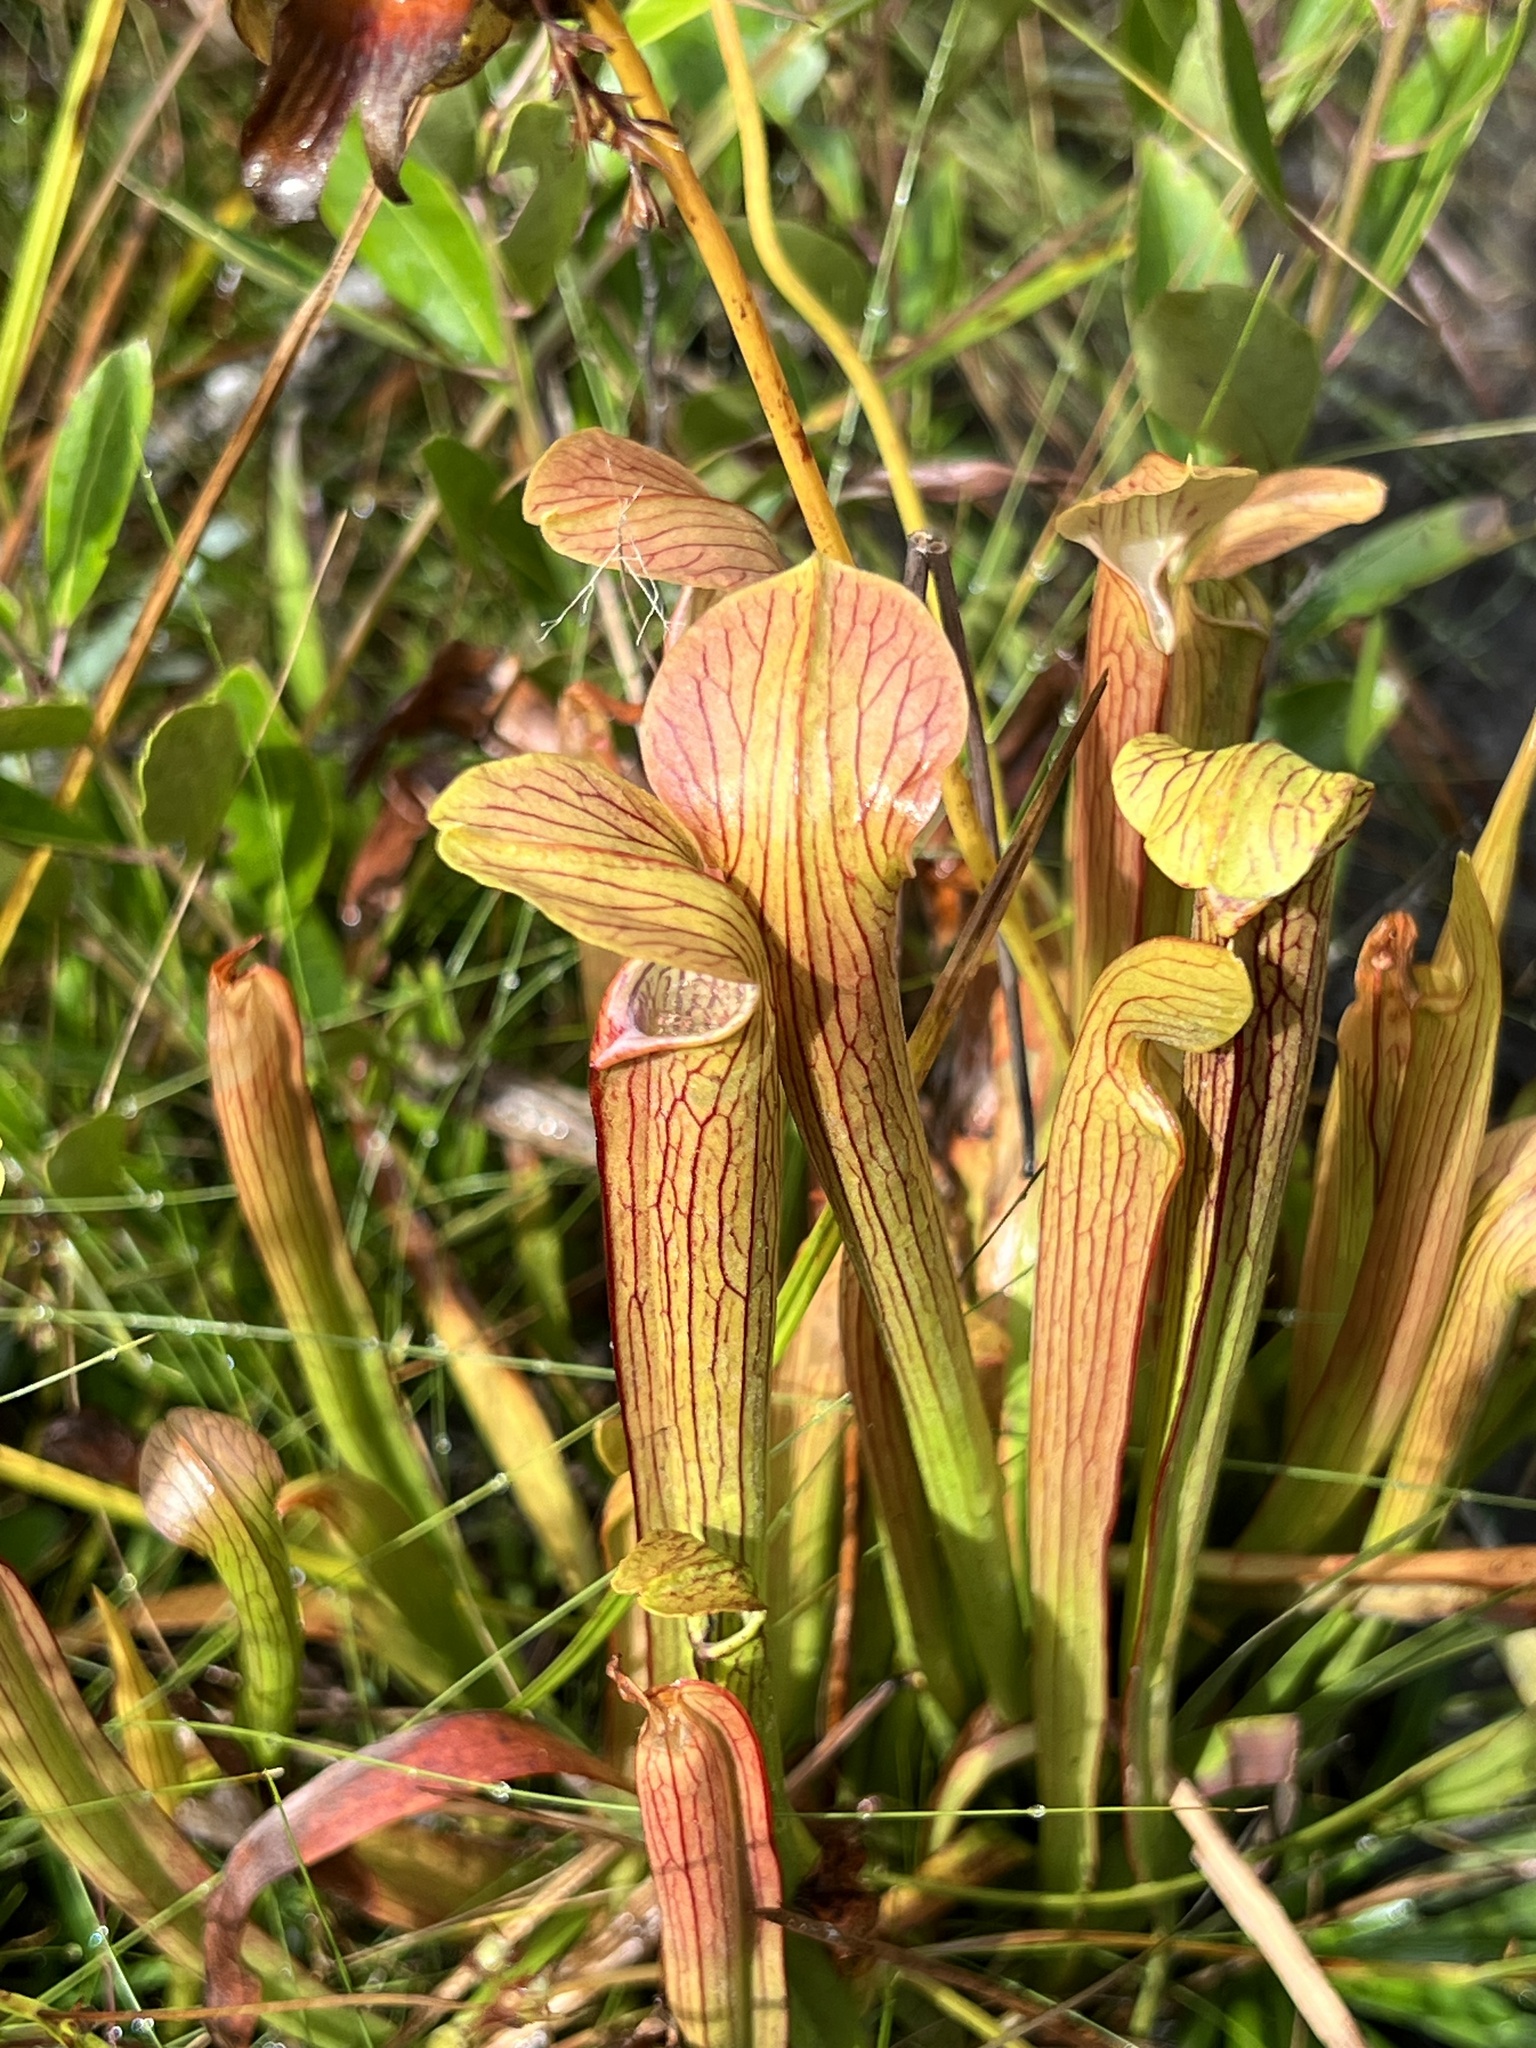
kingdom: Plantae
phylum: Tracheophyta
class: Magnoliopsida
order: Ericales
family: Sarraceniaceae
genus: Sarracenia
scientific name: Sarracenia rubra
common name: Sweet pitcherplant
